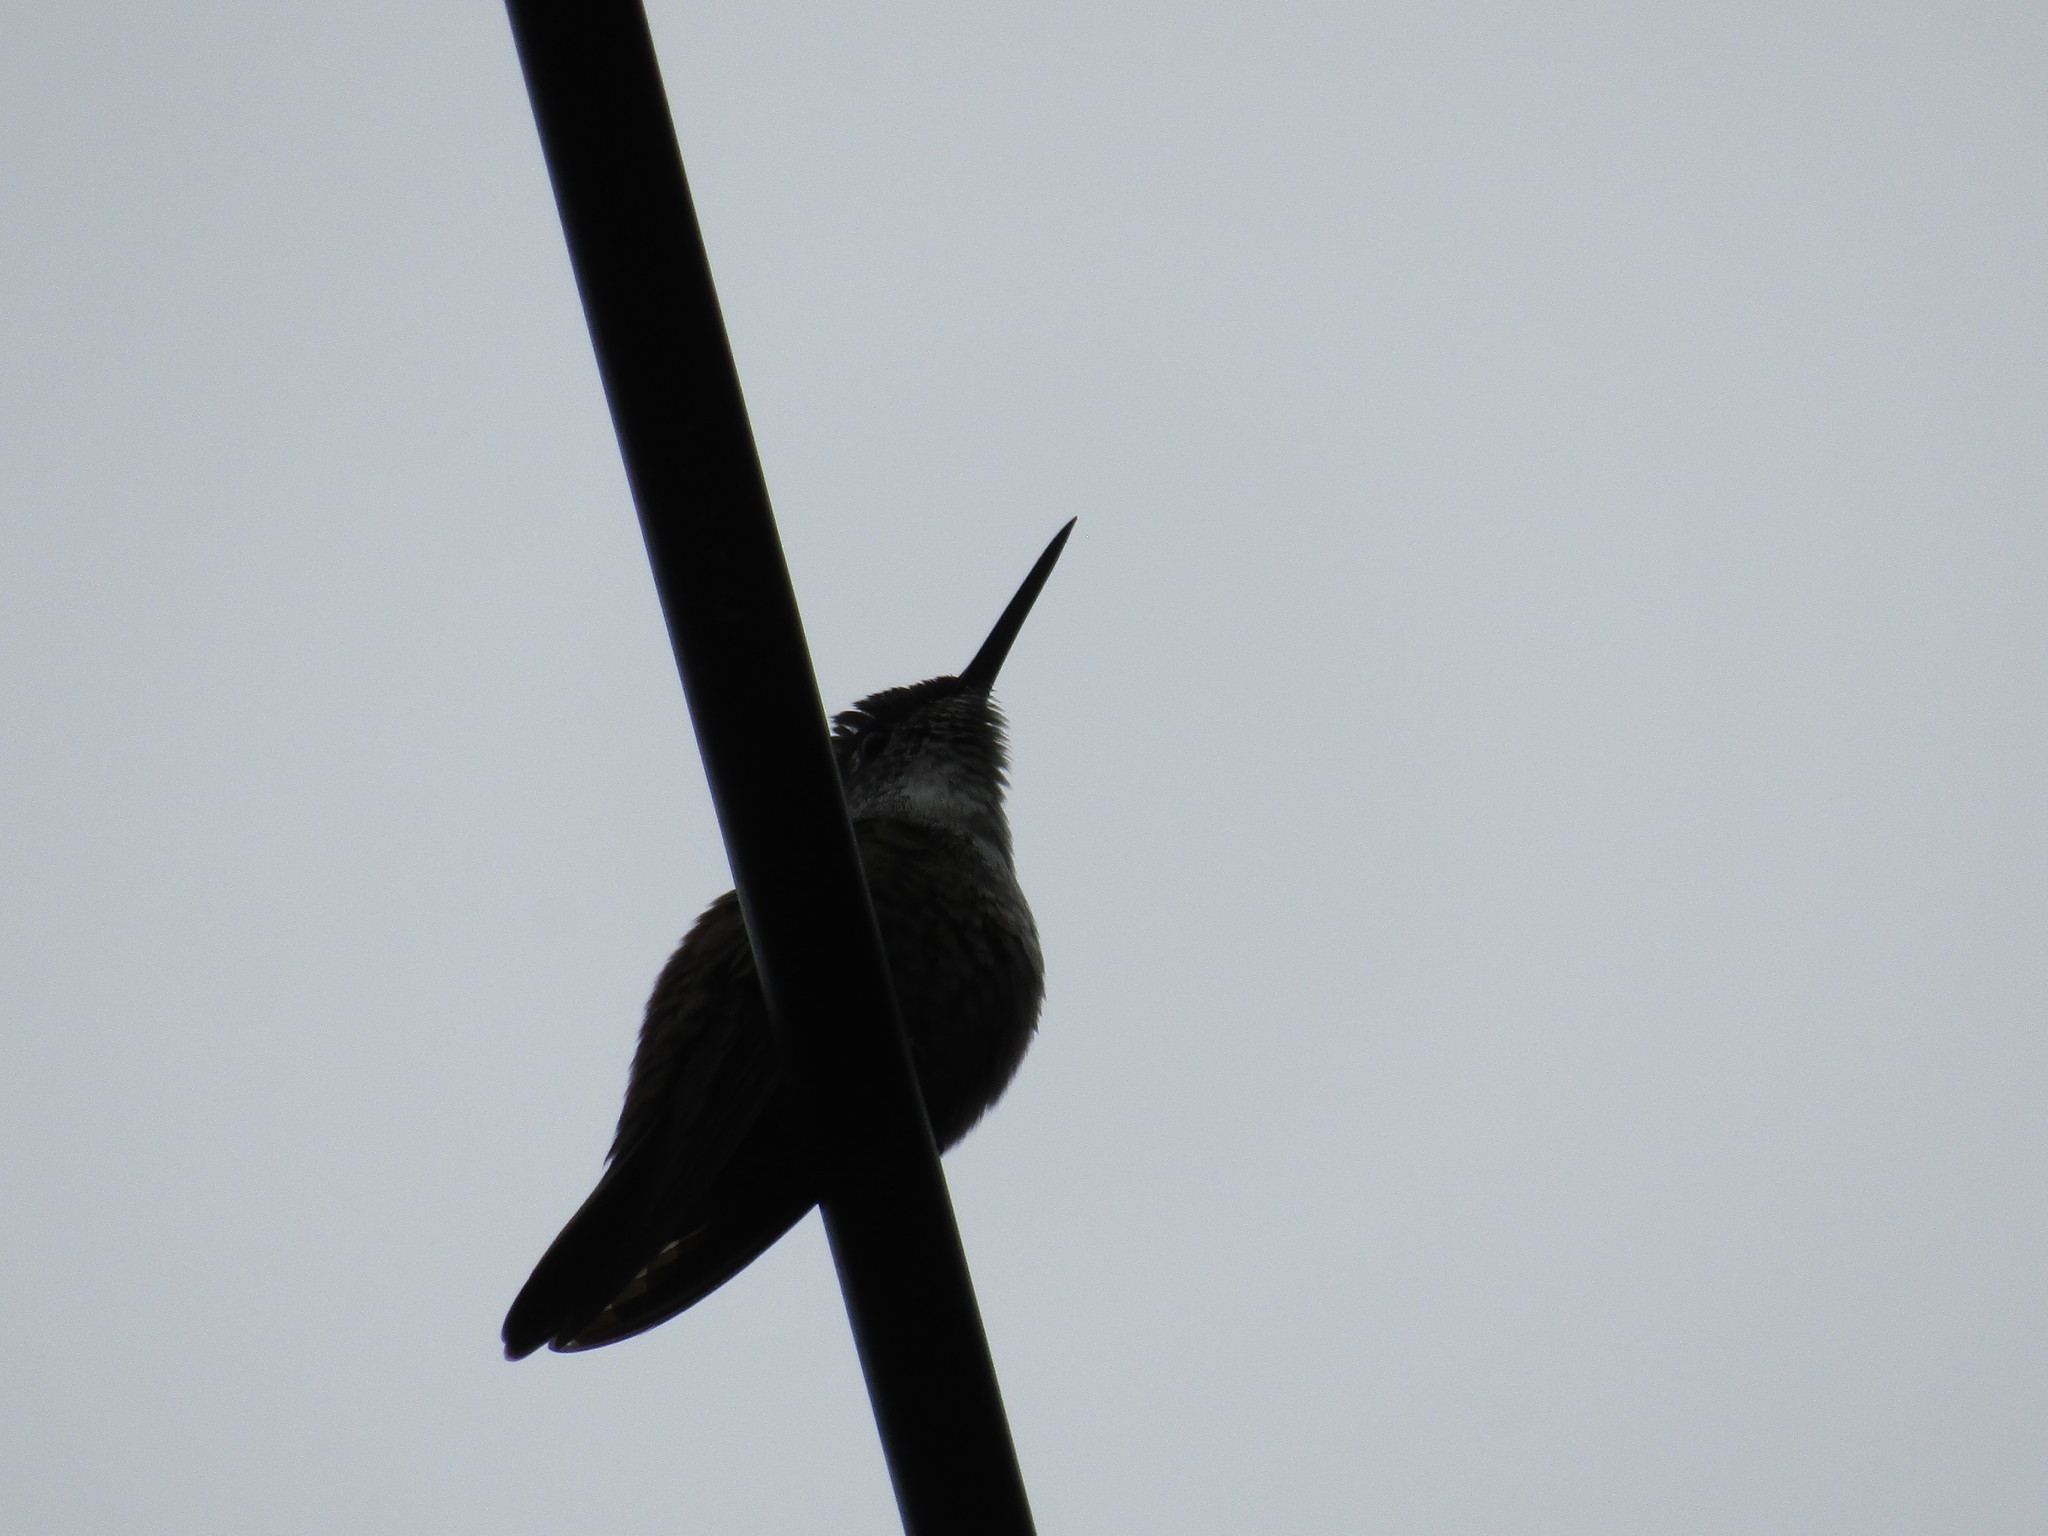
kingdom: Animalia
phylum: Chordata
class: Aves
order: Apodiformes
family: Trochilidae
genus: Saucerottia
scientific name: Saucerottia cyanocephala
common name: Azure-crowned hummingbird
